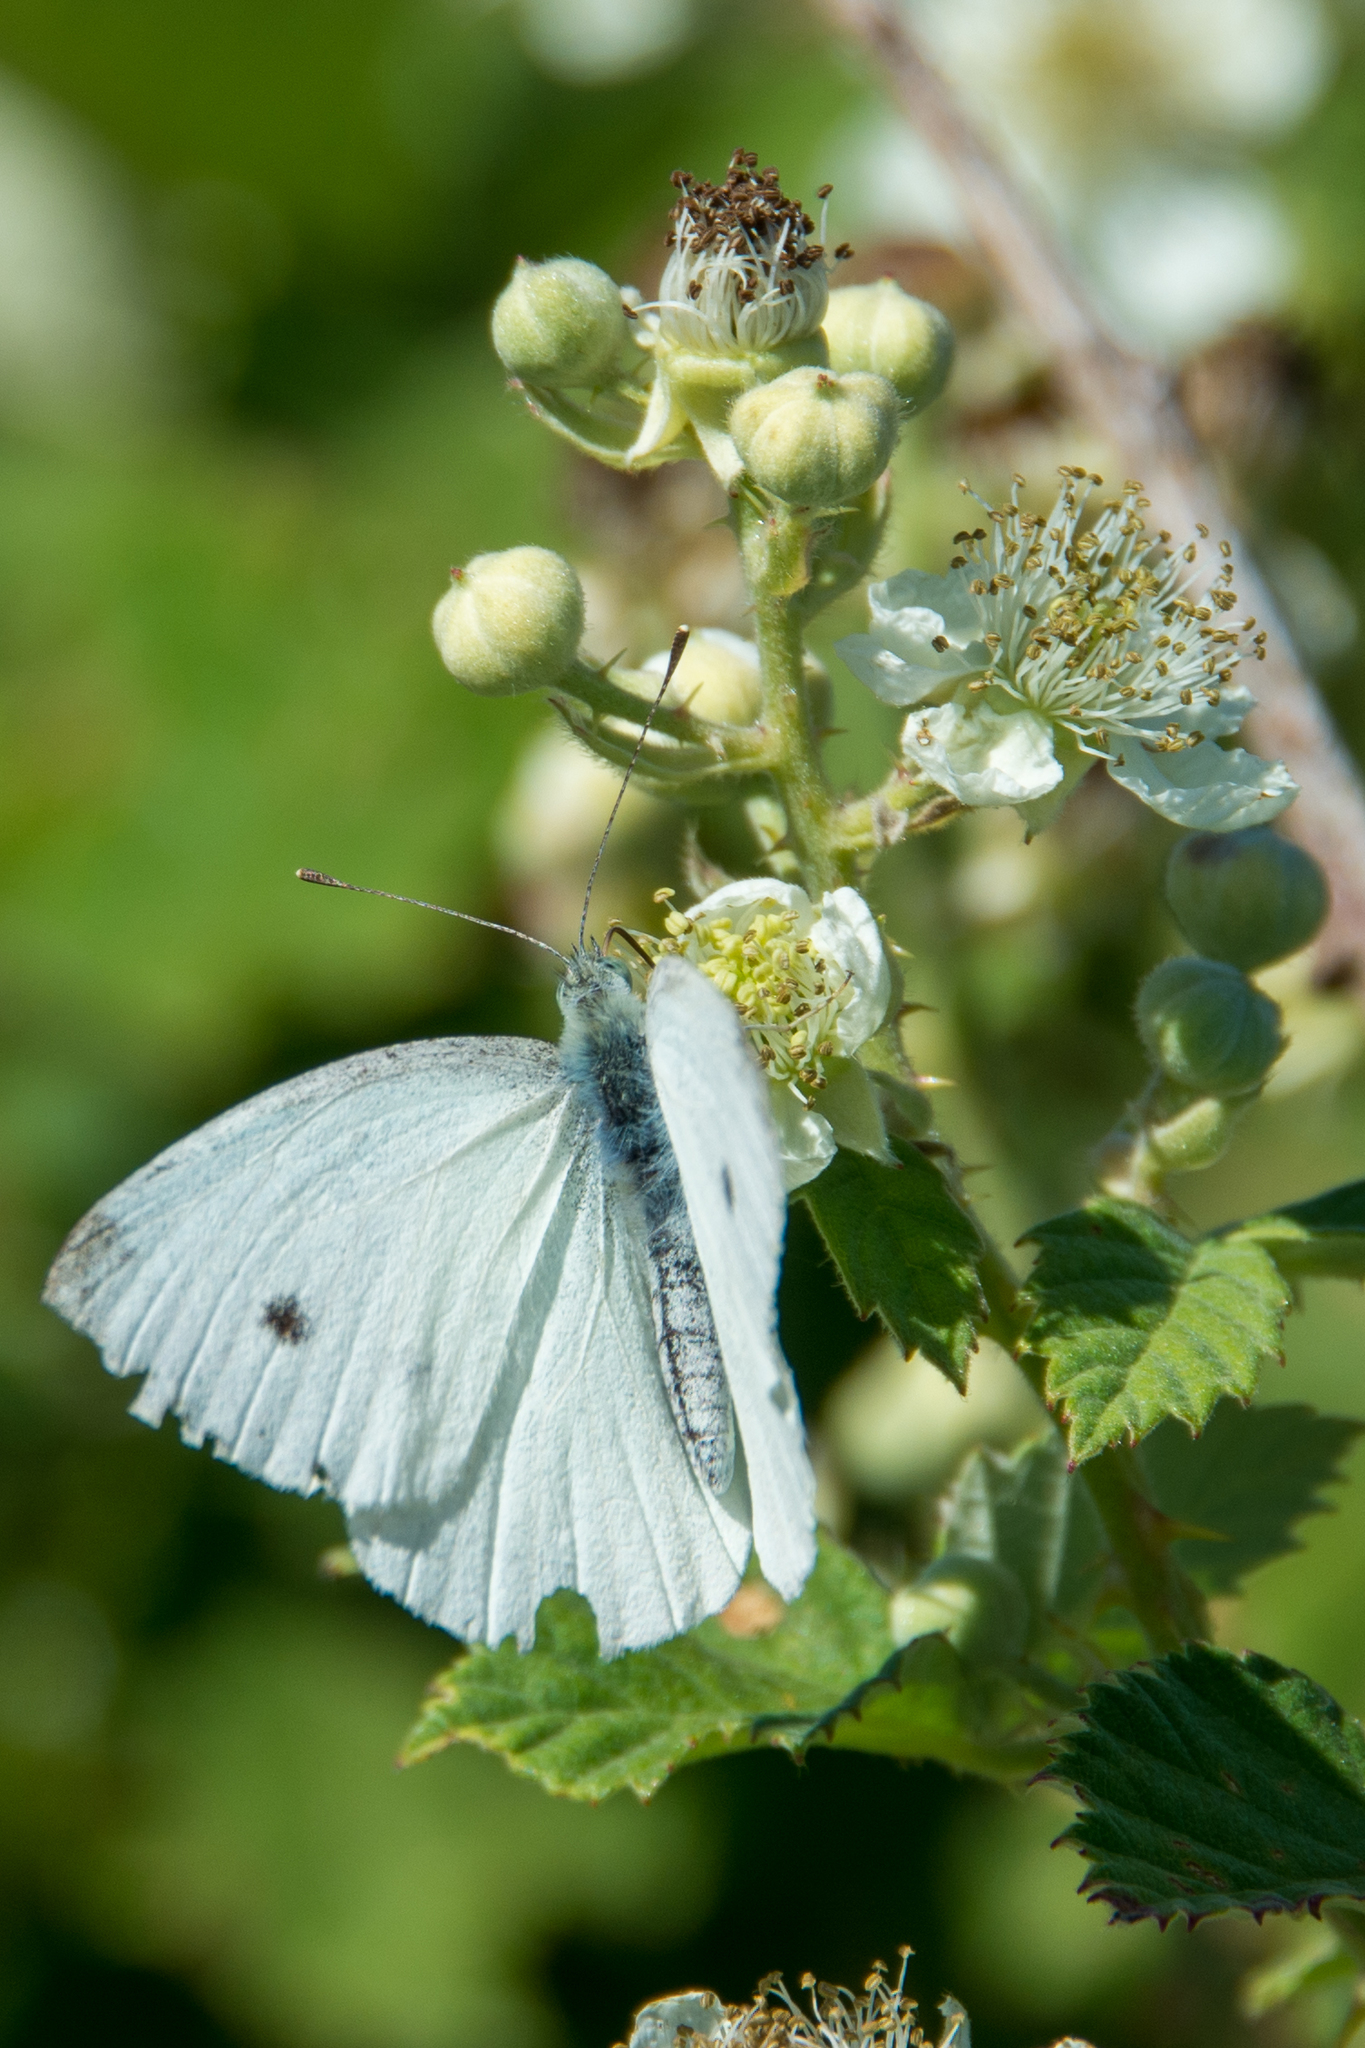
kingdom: Animalia
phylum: Arthropoda
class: Insecta
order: Lepidoptera
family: Pieridae
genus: Pieris
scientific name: Pieris rapae
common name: Small white
